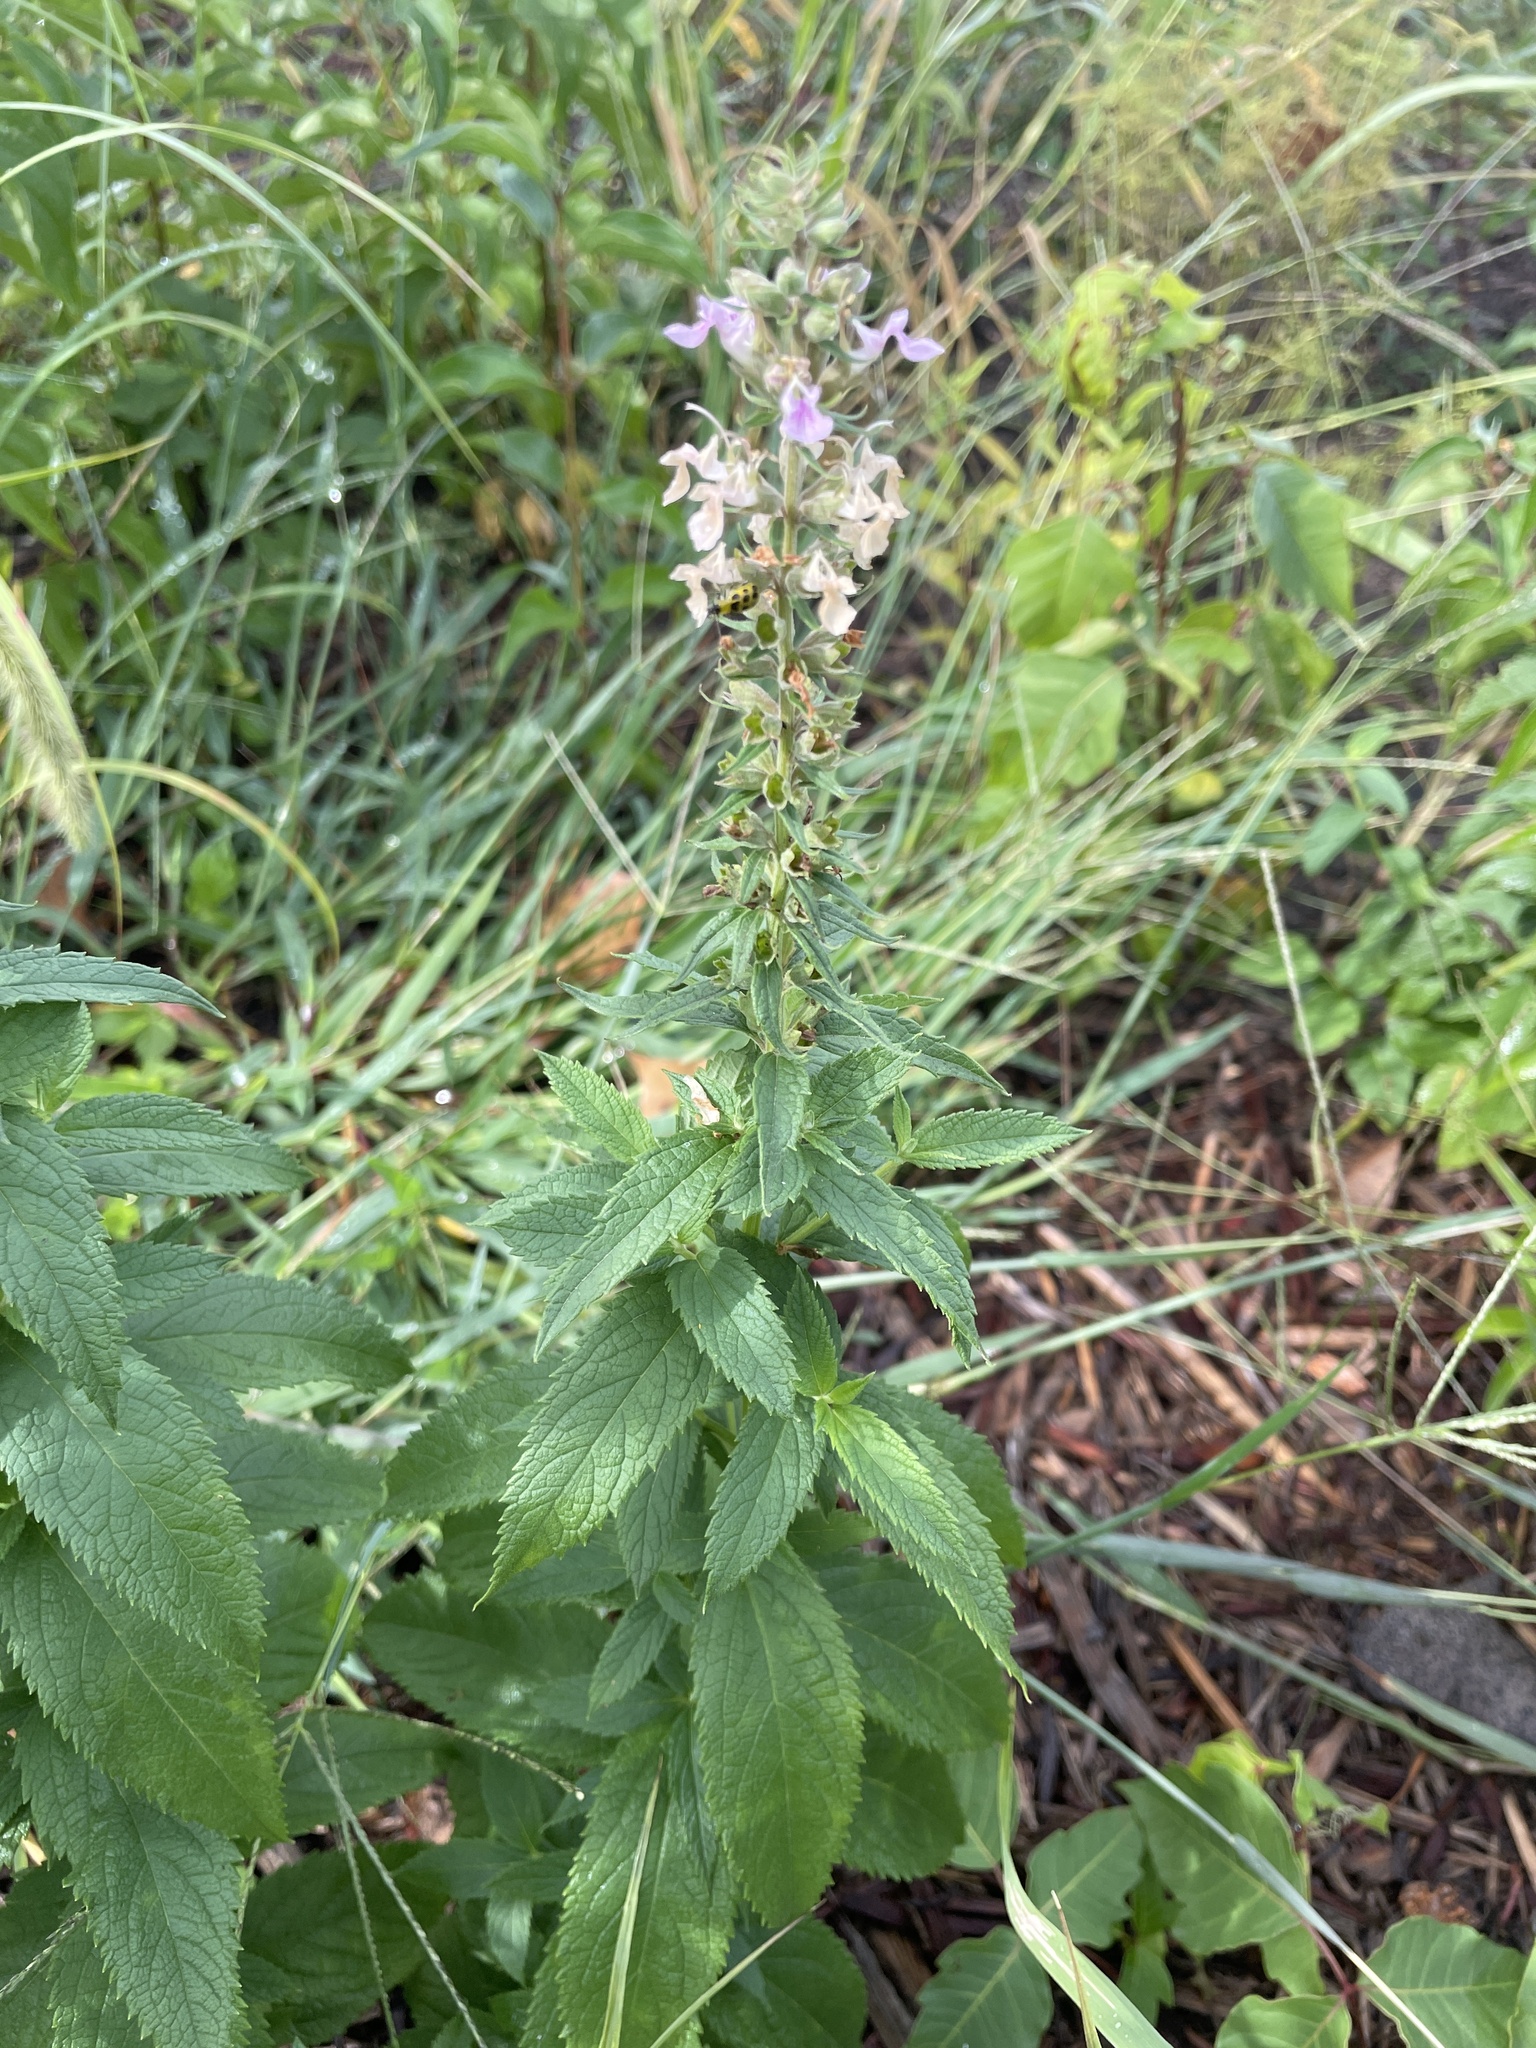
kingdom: Plantae
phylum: Tracheophyta
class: Magnoliopsida
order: Lamiales
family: Lamiaceae
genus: Teucrium
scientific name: Teucrium canadense
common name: American germander
